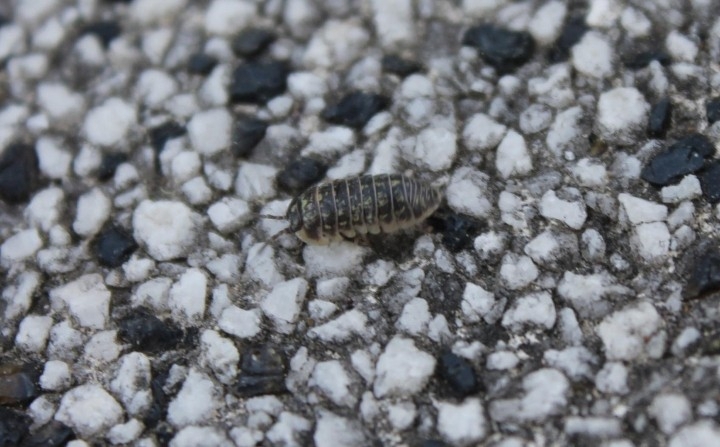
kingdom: Animalia
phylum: Arthropoda
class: Malacostraca
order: Isopoda
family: Armadillidiidae
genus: Armadillidium
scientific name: Armadillidium versicolor
